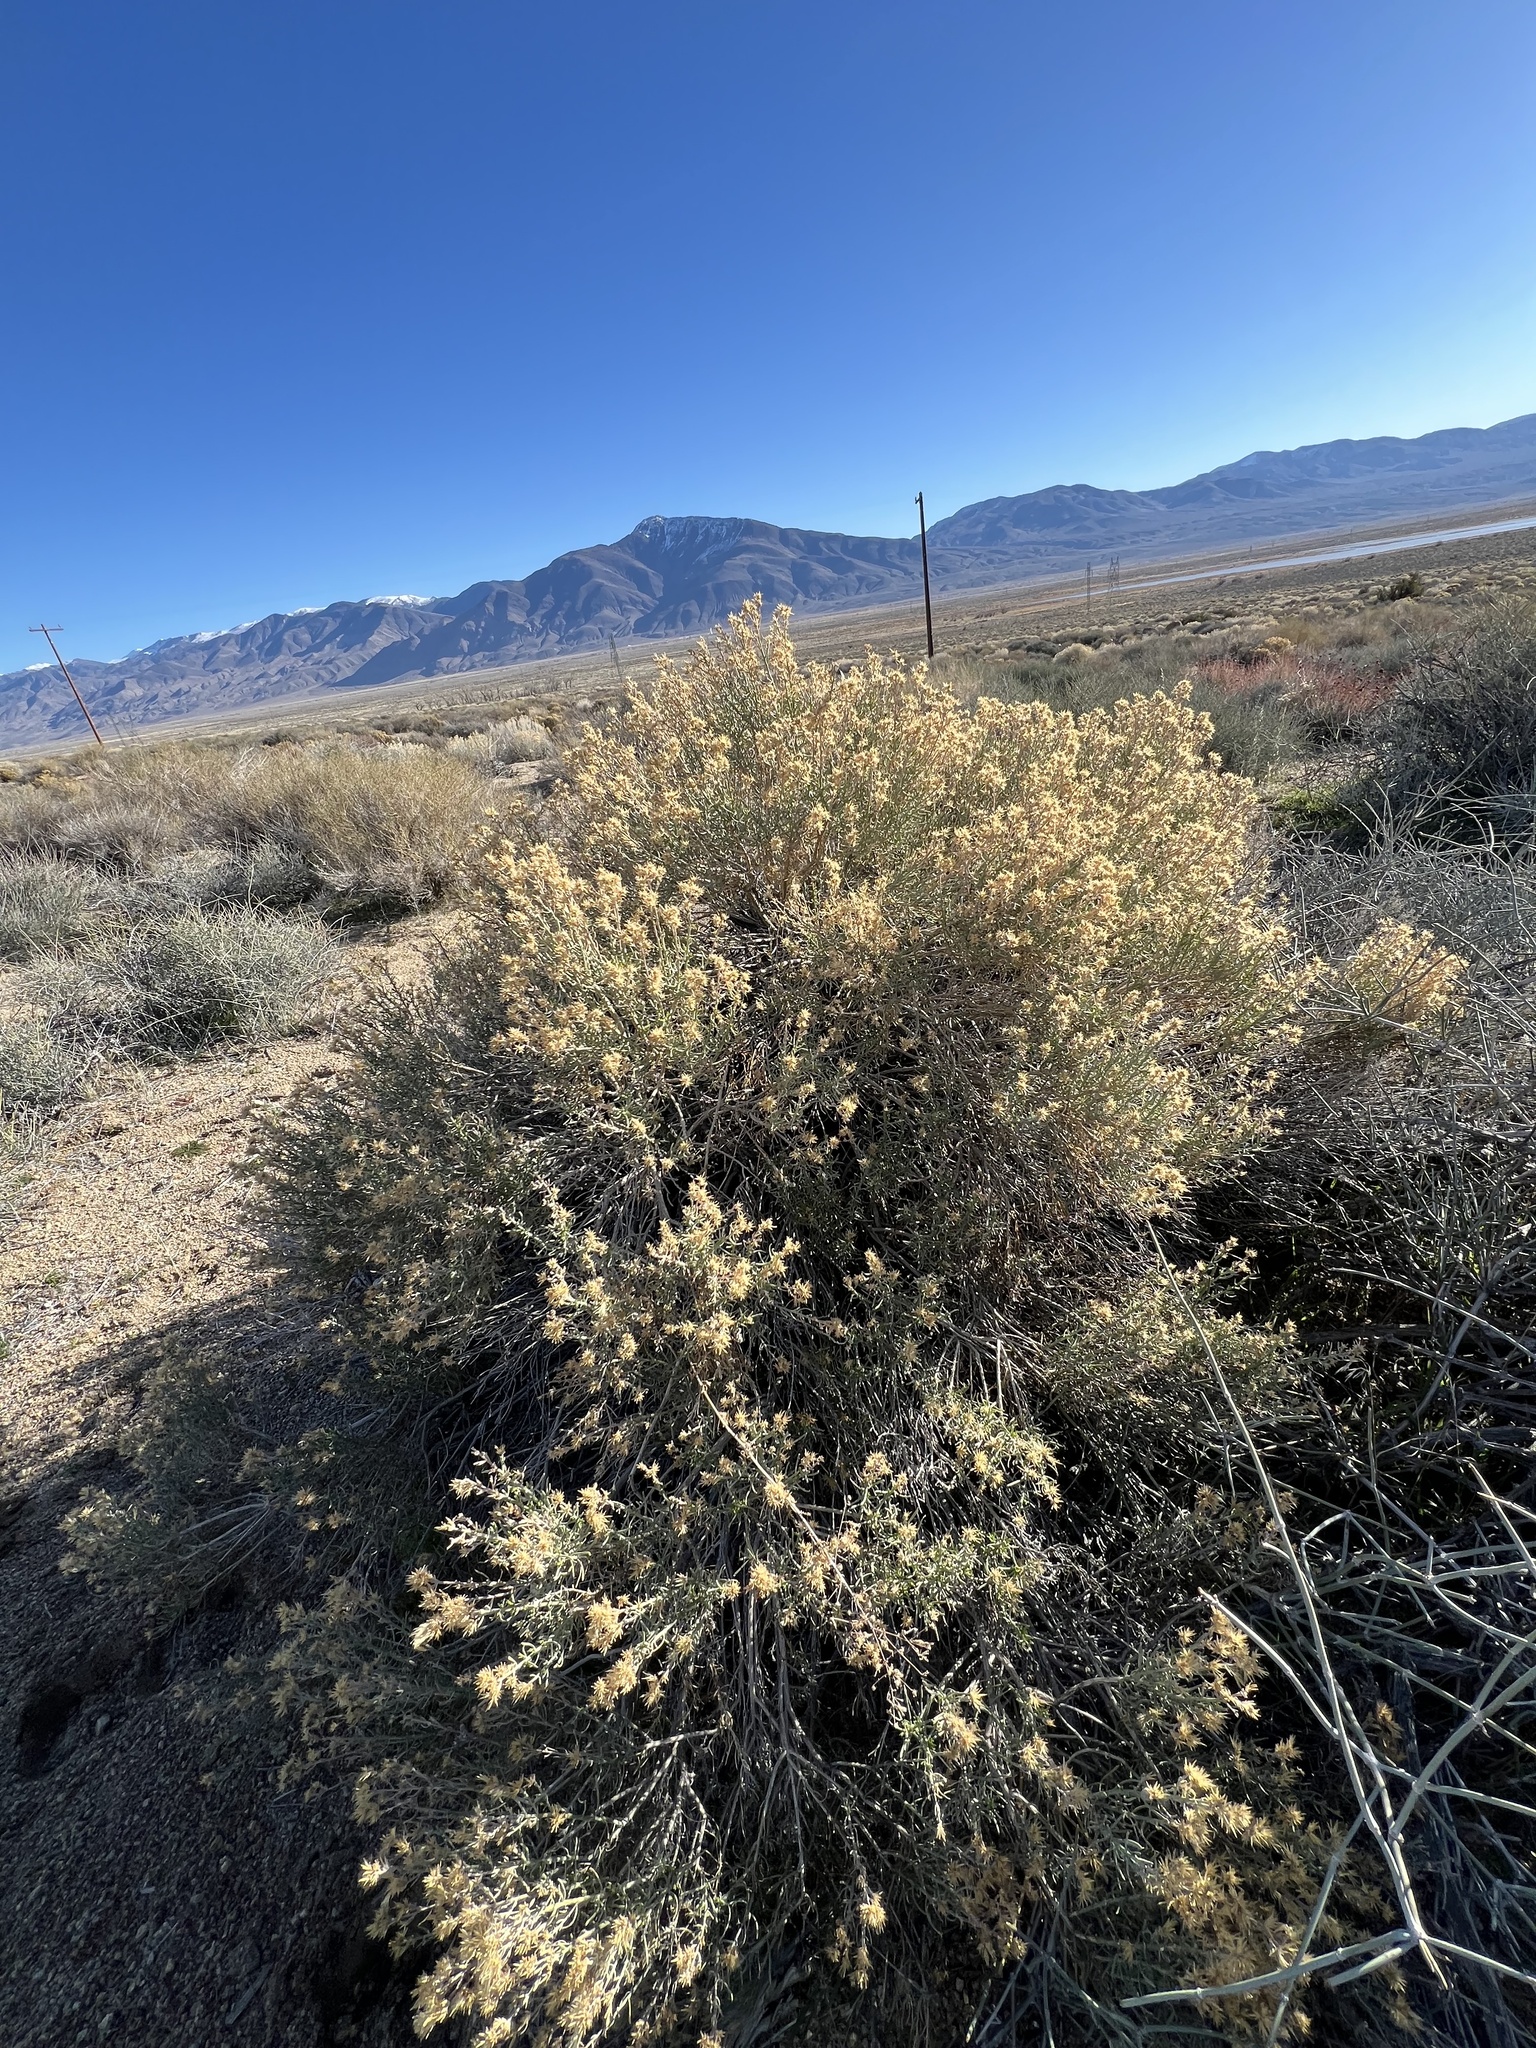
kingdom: Plantae
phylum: Tracheophyta
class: Magnoliopsida
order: Asterales
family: Asteraceae
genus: Ericameria
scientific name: Ericameria teretifolia
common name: Round-leaf rabbitbrush
